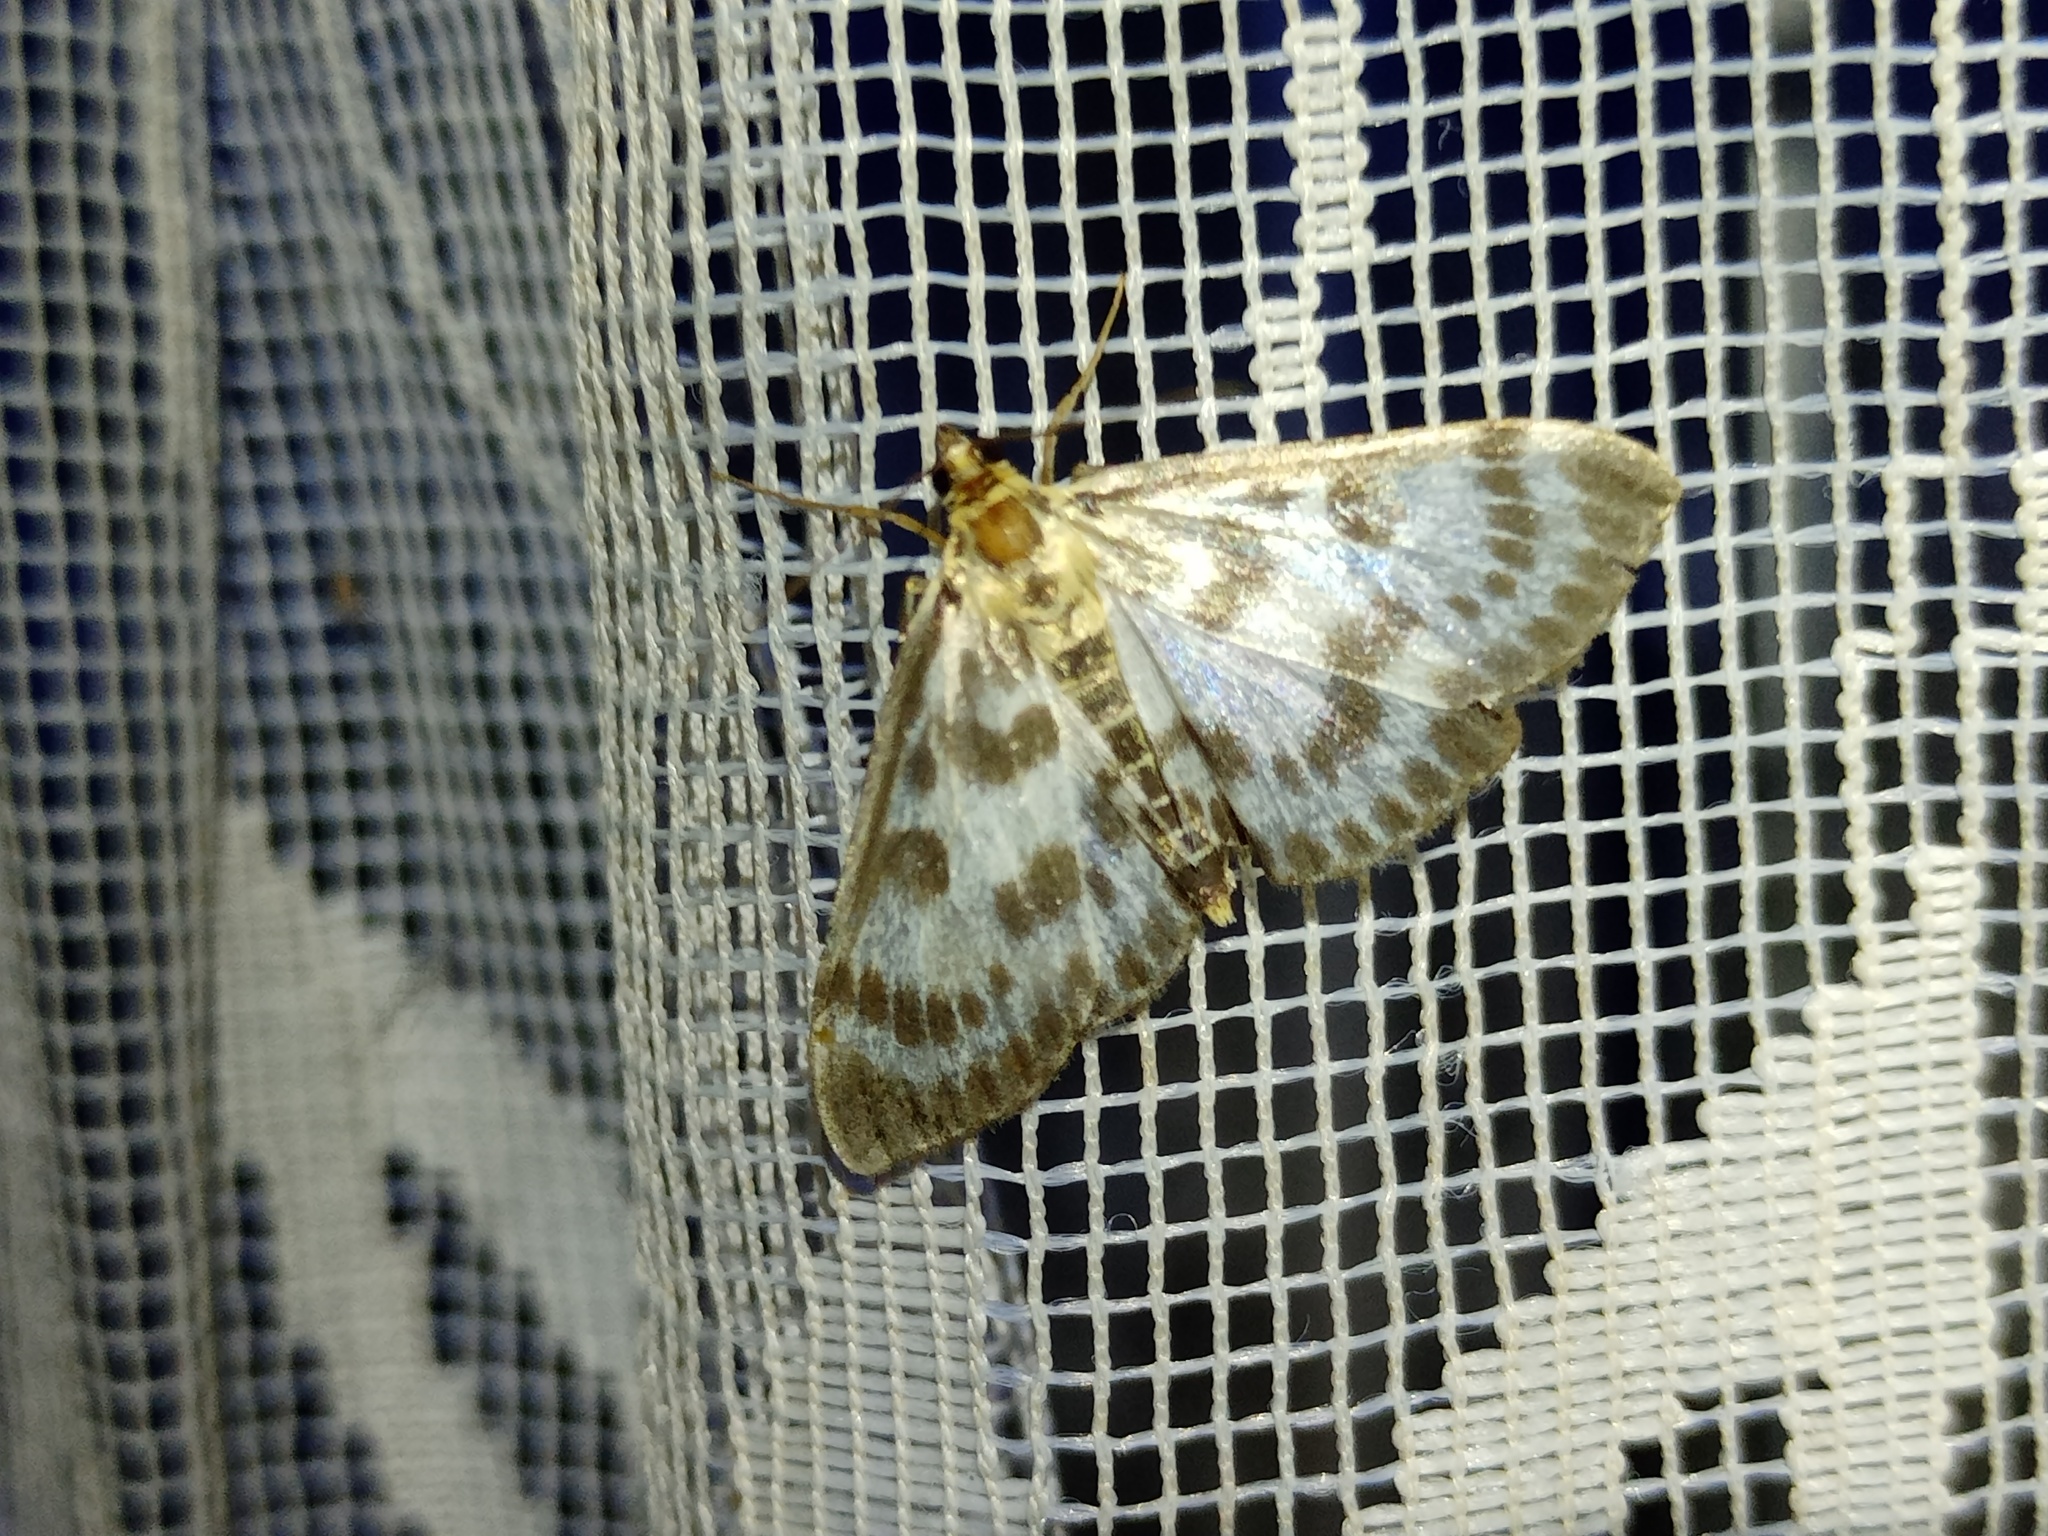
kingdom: Animalia
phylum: Arthropoda
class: Insecta
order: Lepidoptera
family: Crambidae
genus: Anania
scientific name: Anania hortulata
